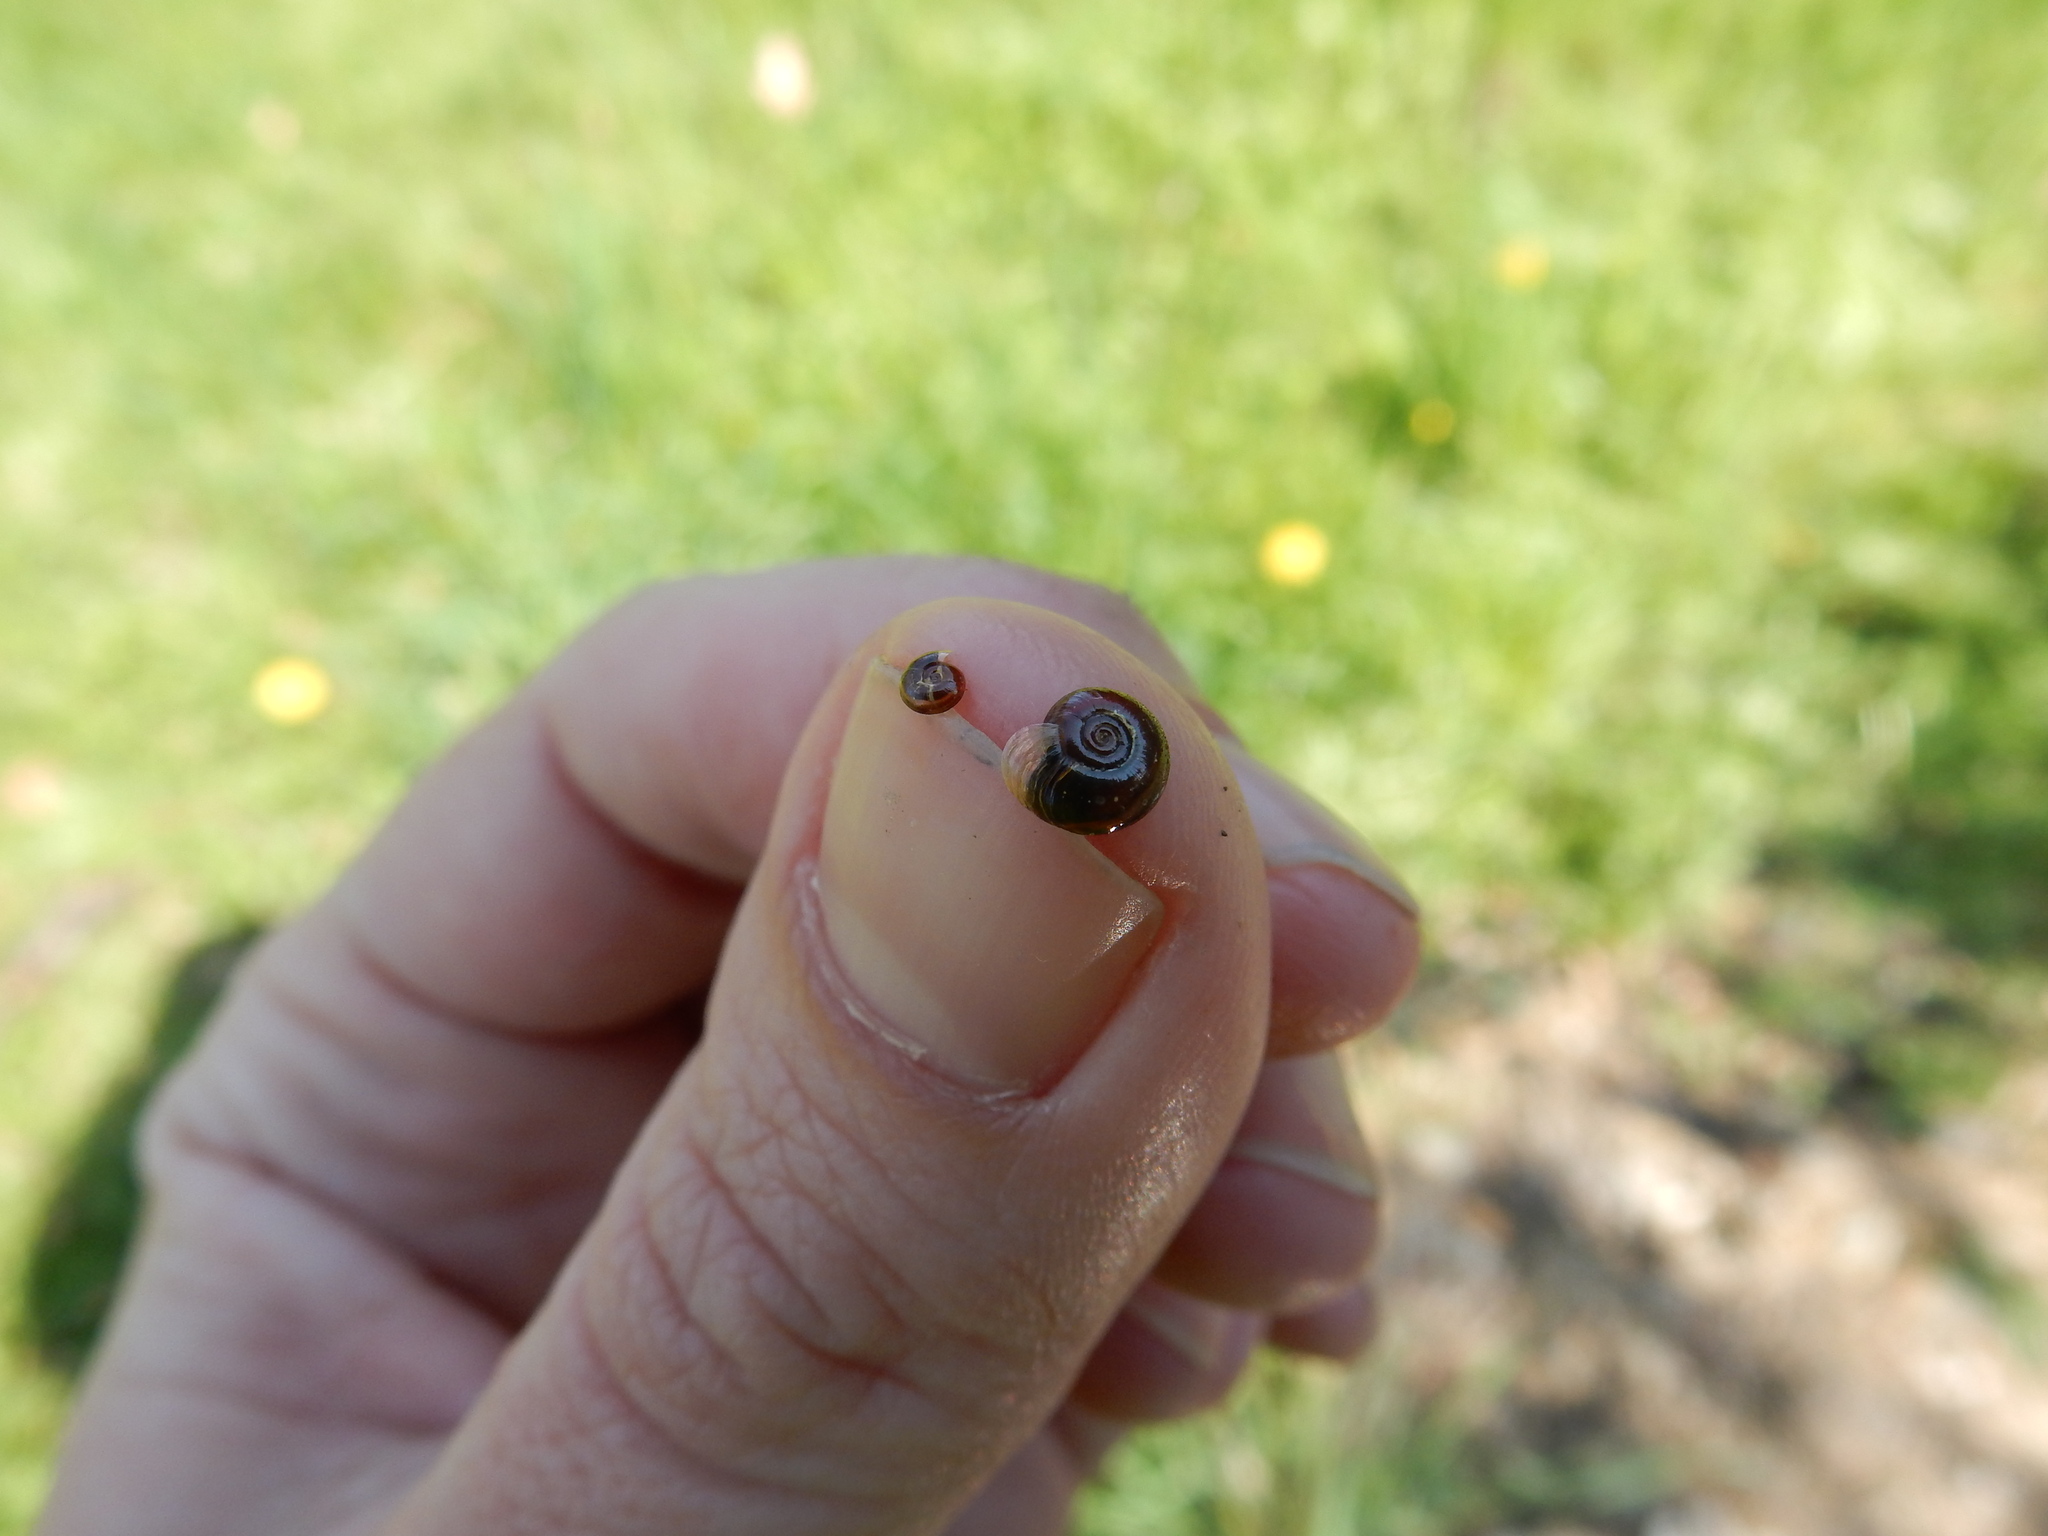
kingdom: Animalia
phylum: Mollusca
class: Gastropoda
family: Planorbidae
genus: Segmentina
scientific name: Segmentina nitida
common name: The shining ram's-horn
